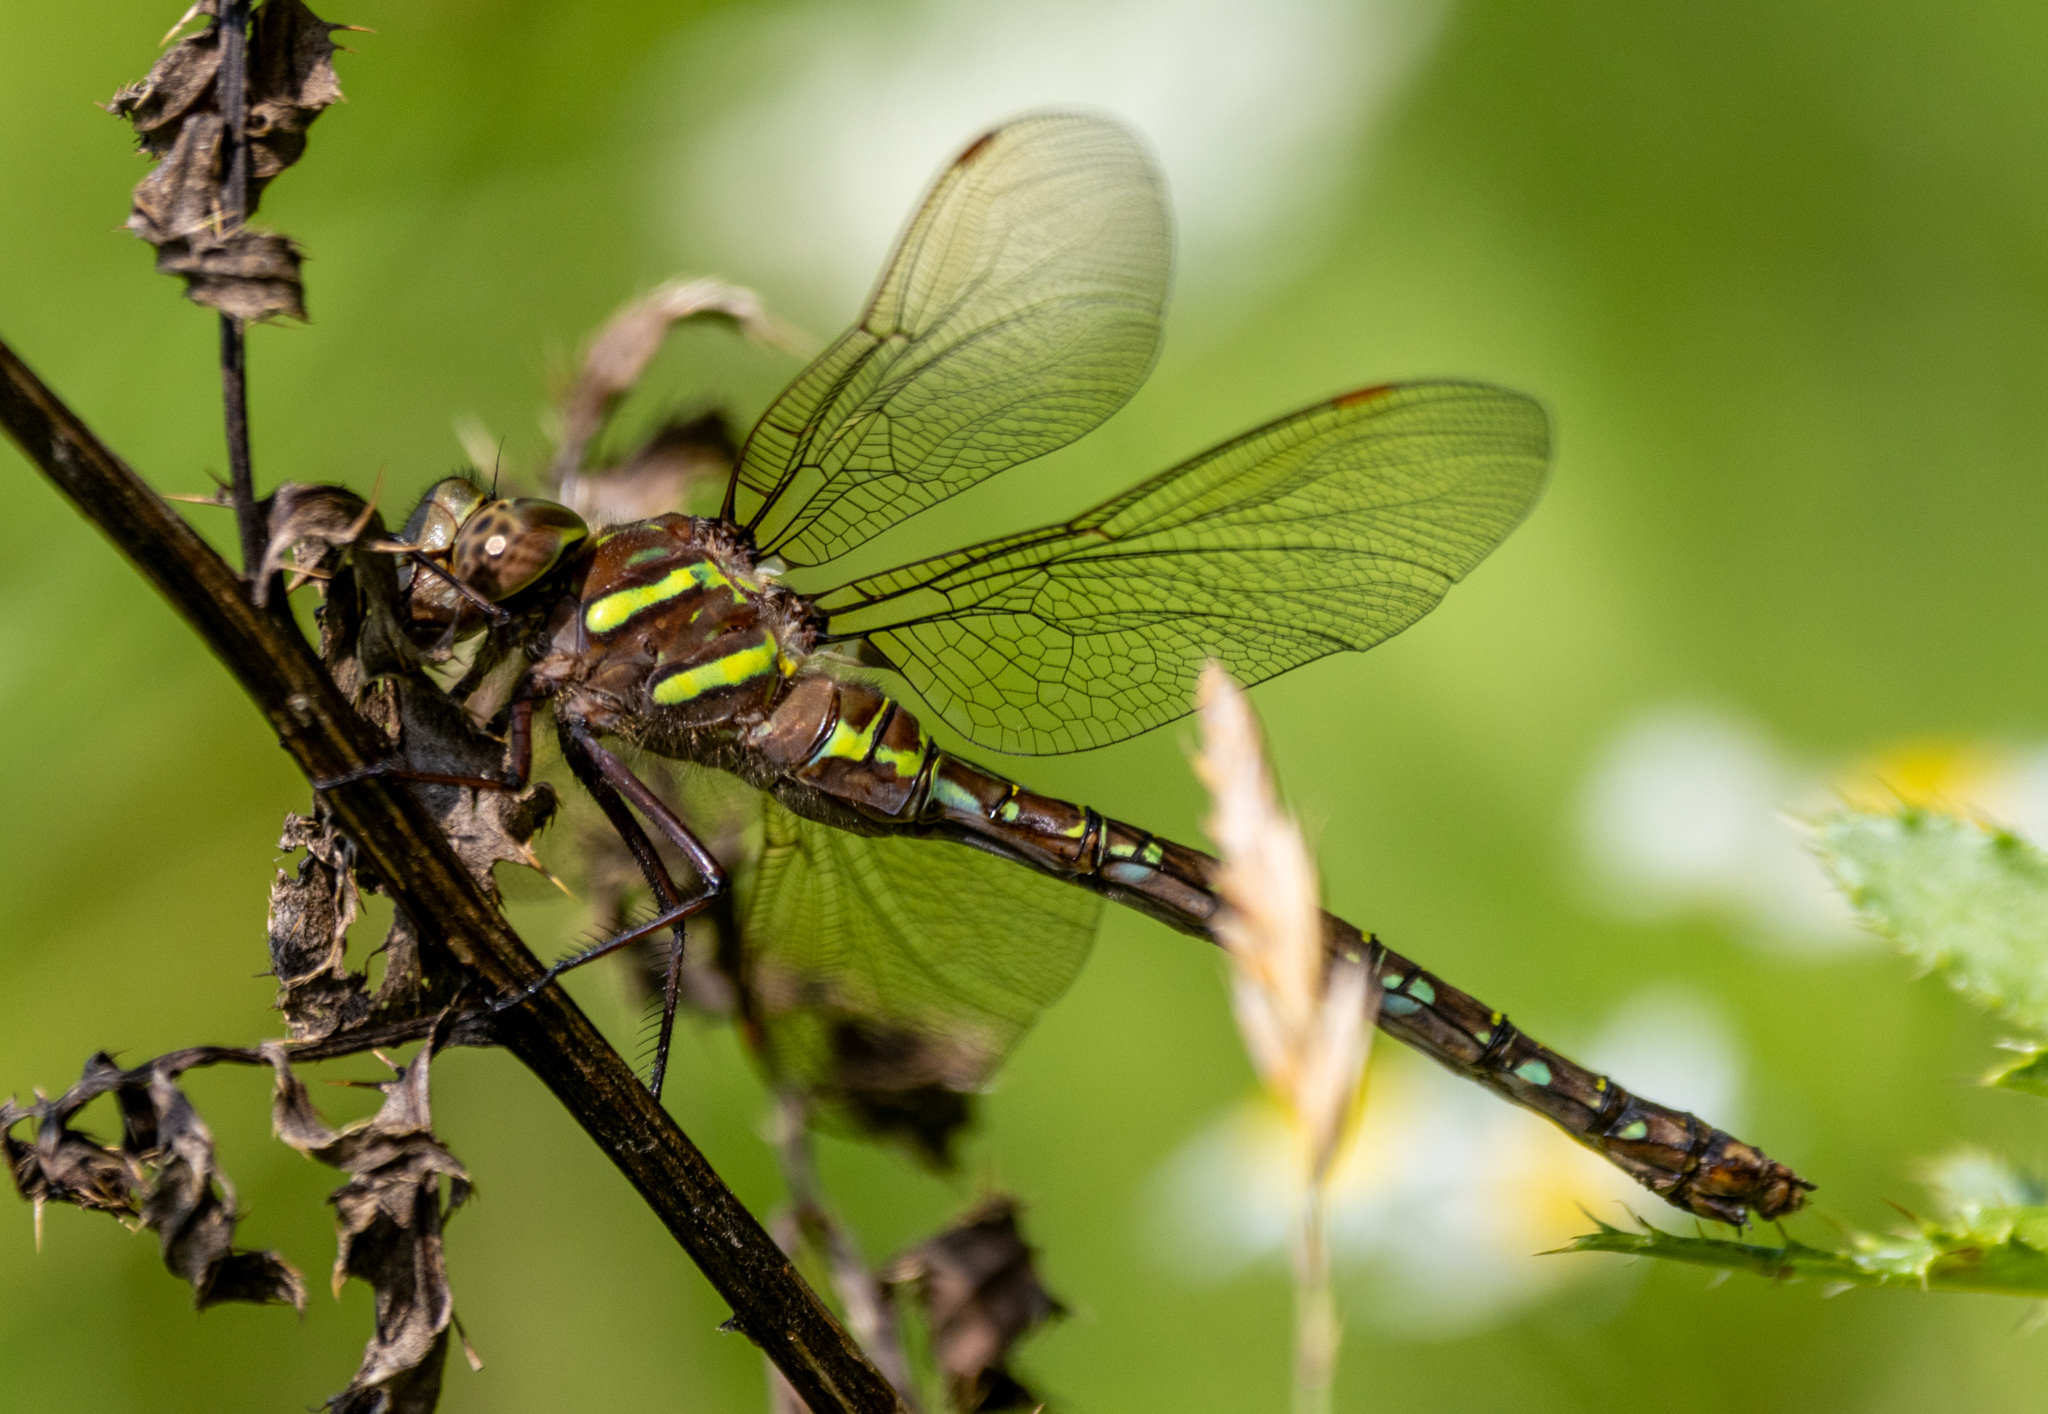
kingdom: Animalia
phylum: Arthropoda
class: Insecta
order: Odonata
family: Aeshnidae
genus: Aeshna
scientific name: Aeshna umbrosa
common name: Shadow darner
